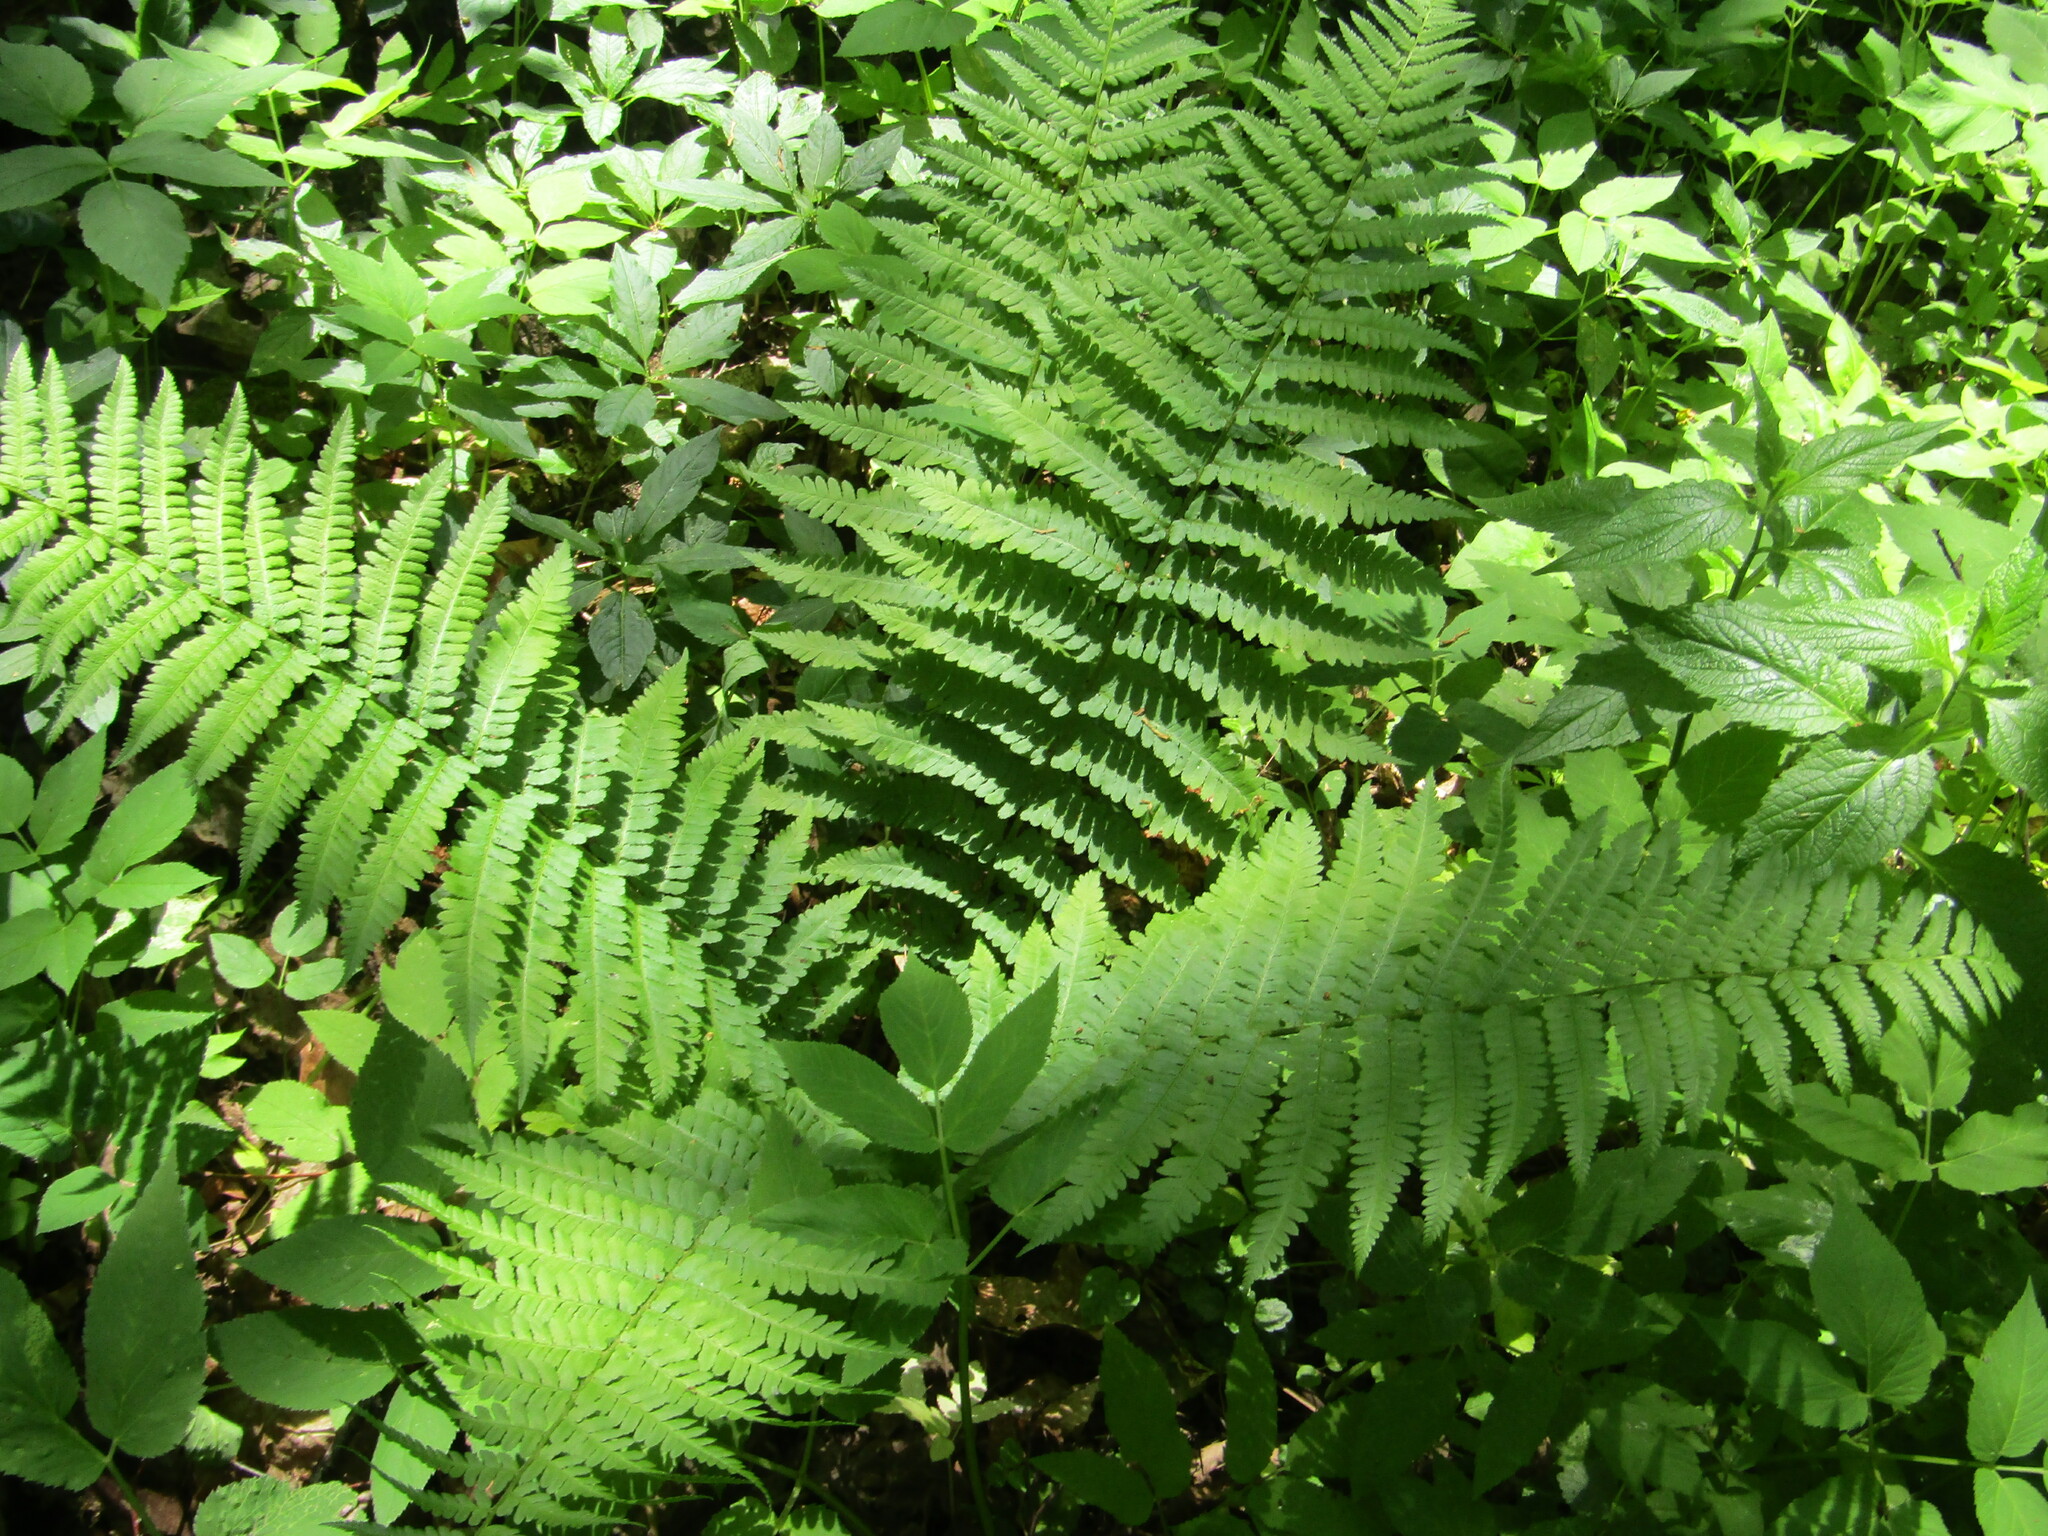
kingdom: Plantae
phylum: Tracheophyta
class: Polypodiopsida
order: Polypodiales
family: Dryopteridaceae
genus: Dryopteris
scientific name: Dryopteris filix-mas
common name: Male fern
